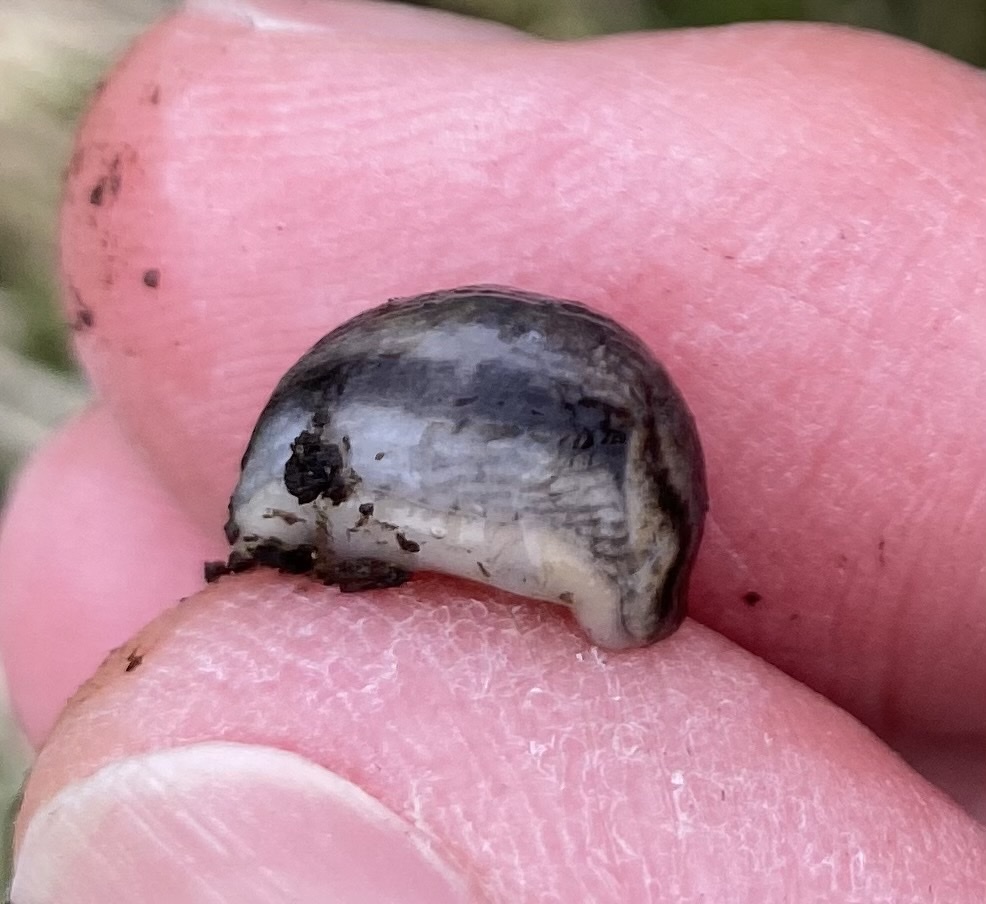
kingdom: Animalia
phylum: Mollusca
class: Gastropoda
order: Stylommatophora
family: Arionidae
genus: Arion
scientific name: Arion fasciatus
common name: Orange-banded arion
